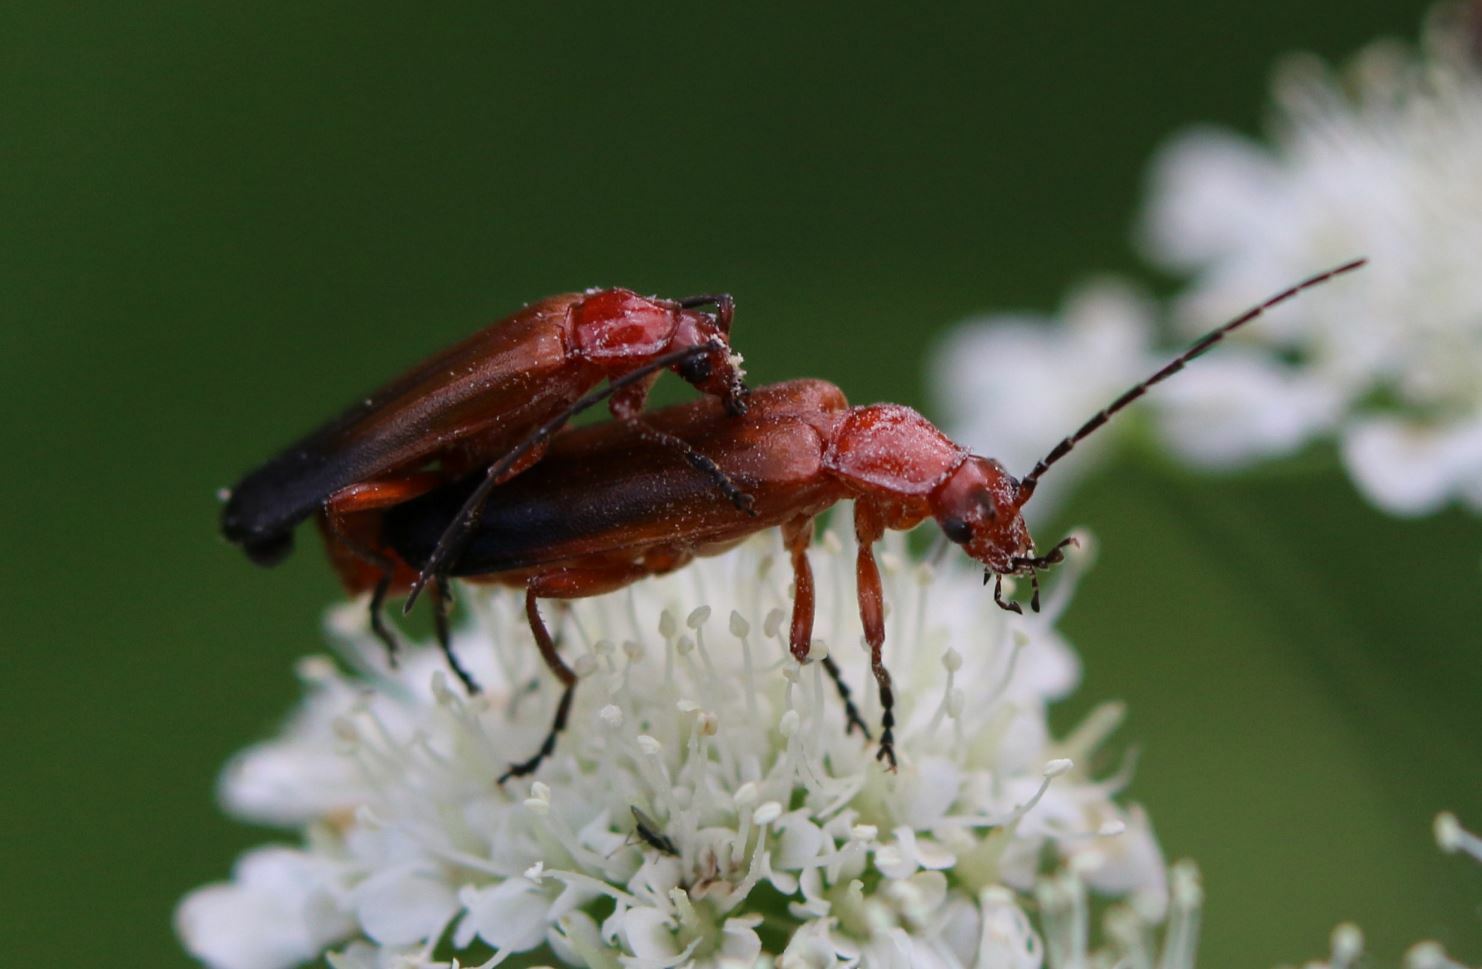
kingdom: Animalia
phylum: Arthropoda
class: Insecta
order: Coleoptera
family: Cantharidae
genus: Rhagonycha
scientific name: Rhagonycha fulva
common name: Common red soldier beetle
